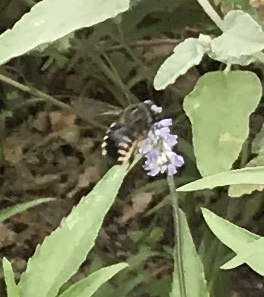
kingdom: Animalia
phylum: Arthropoda
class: Insecta
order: Hymenoptera
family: Apidae
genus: Xylocopa
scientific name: Xylocopa tabaniformis
